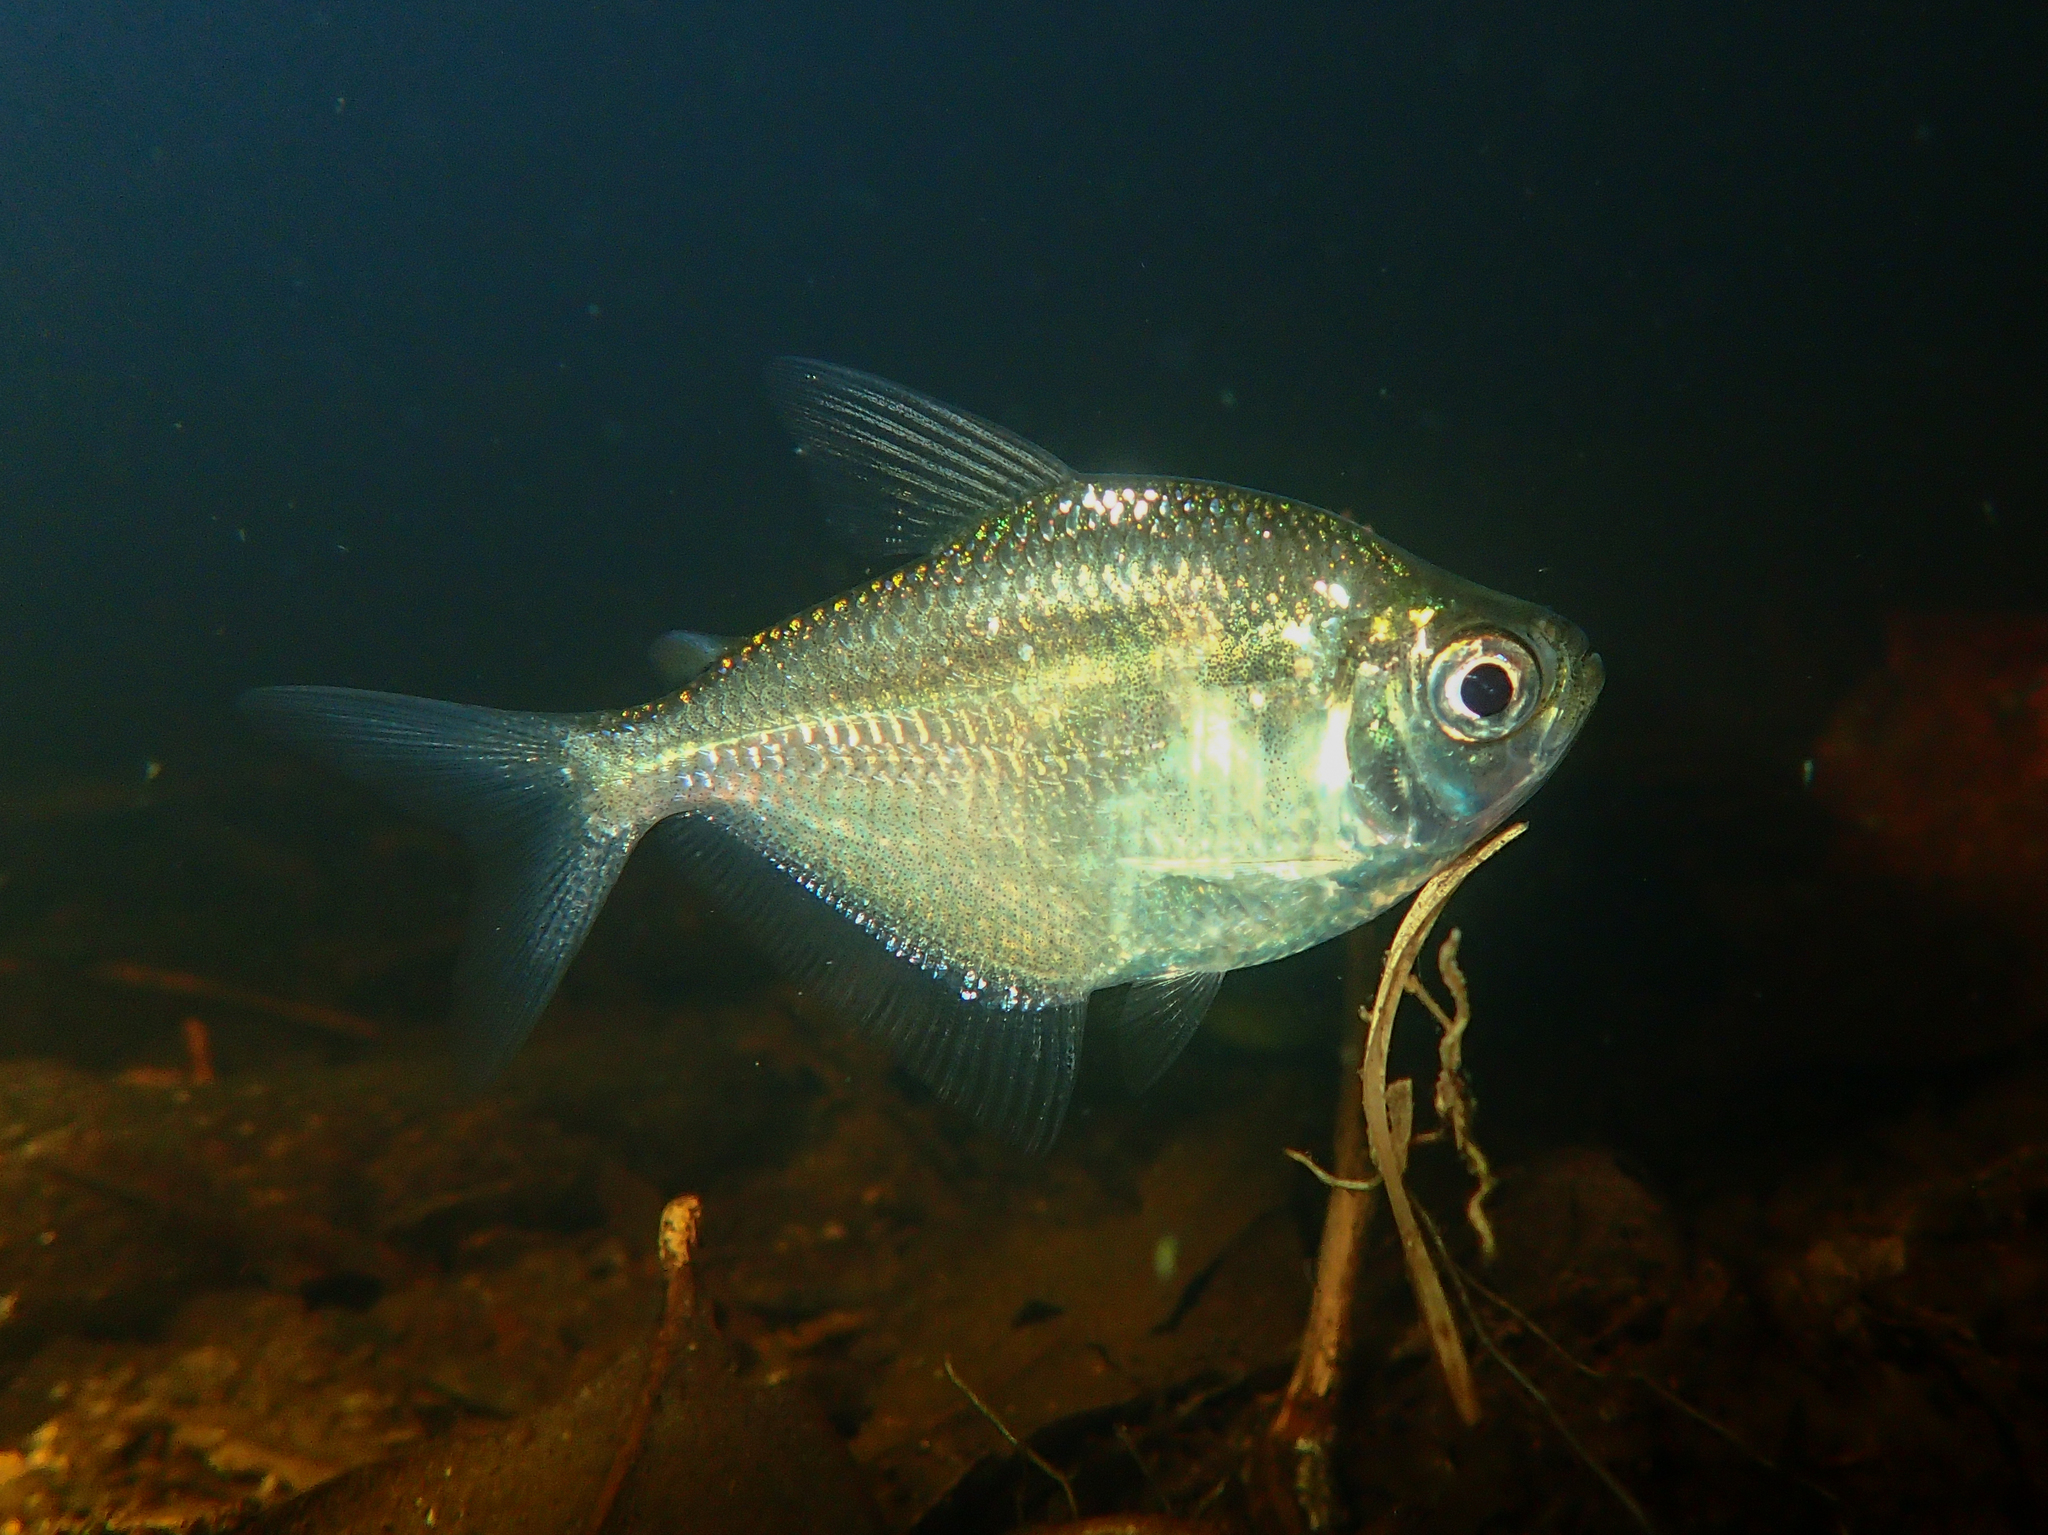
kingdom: Animalia
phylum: Chordata
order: Characiformes
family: Characidae
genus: Poptella
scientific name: Poptella compressa
